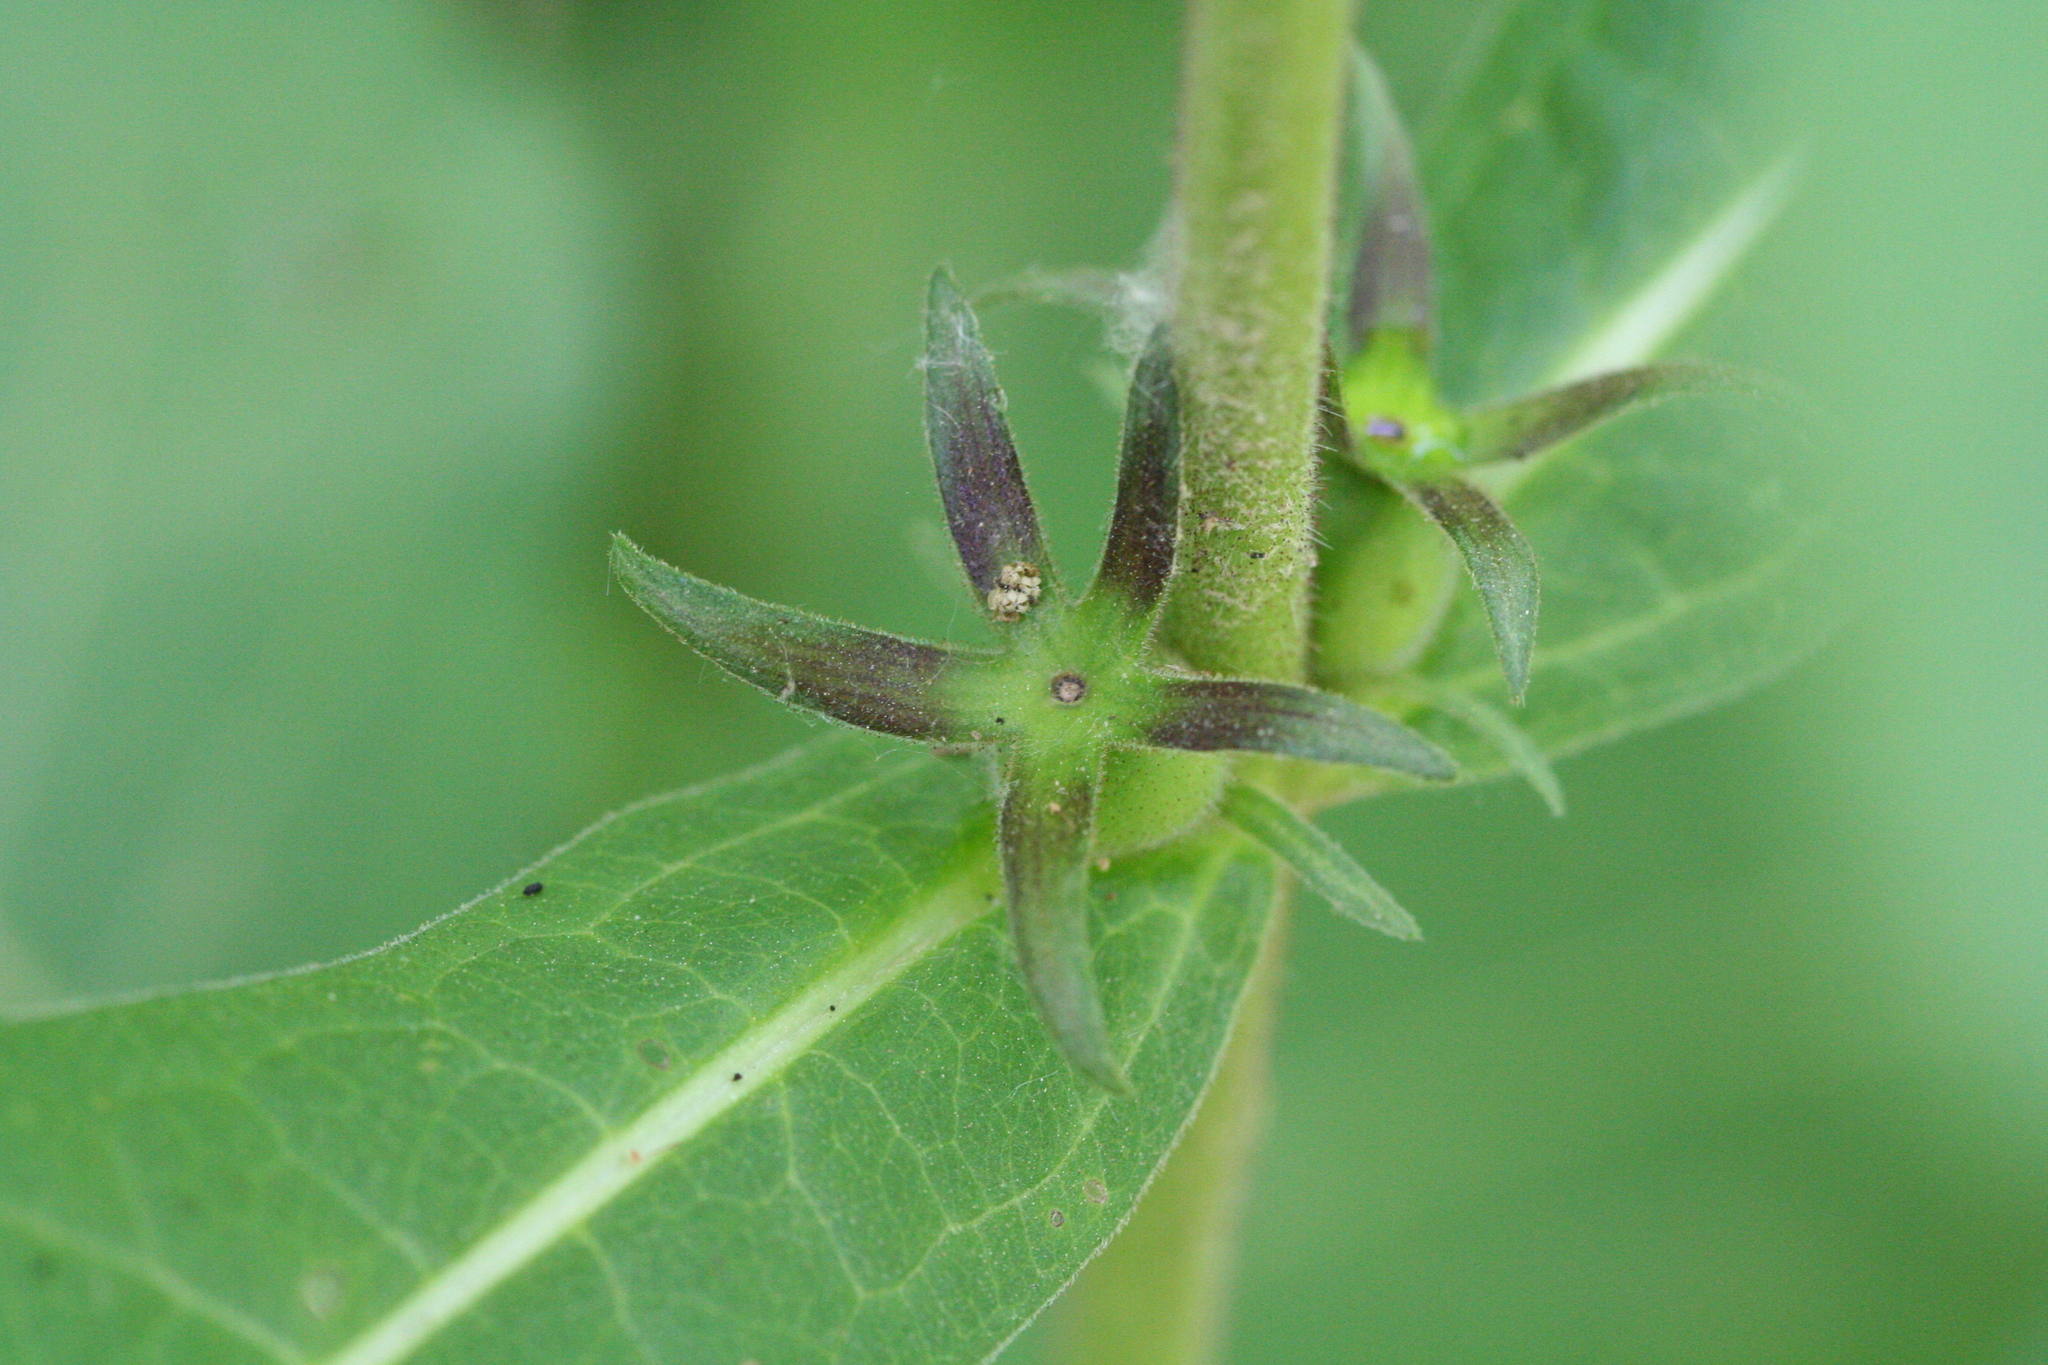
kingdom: Plantae
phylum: Tracheophyta
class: Magnoliopsida
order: Dipsacales
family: Caprifoliaceae
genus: Triosteum
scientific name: Triosteum aurantiacum
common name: Coffee tinker's-weed
